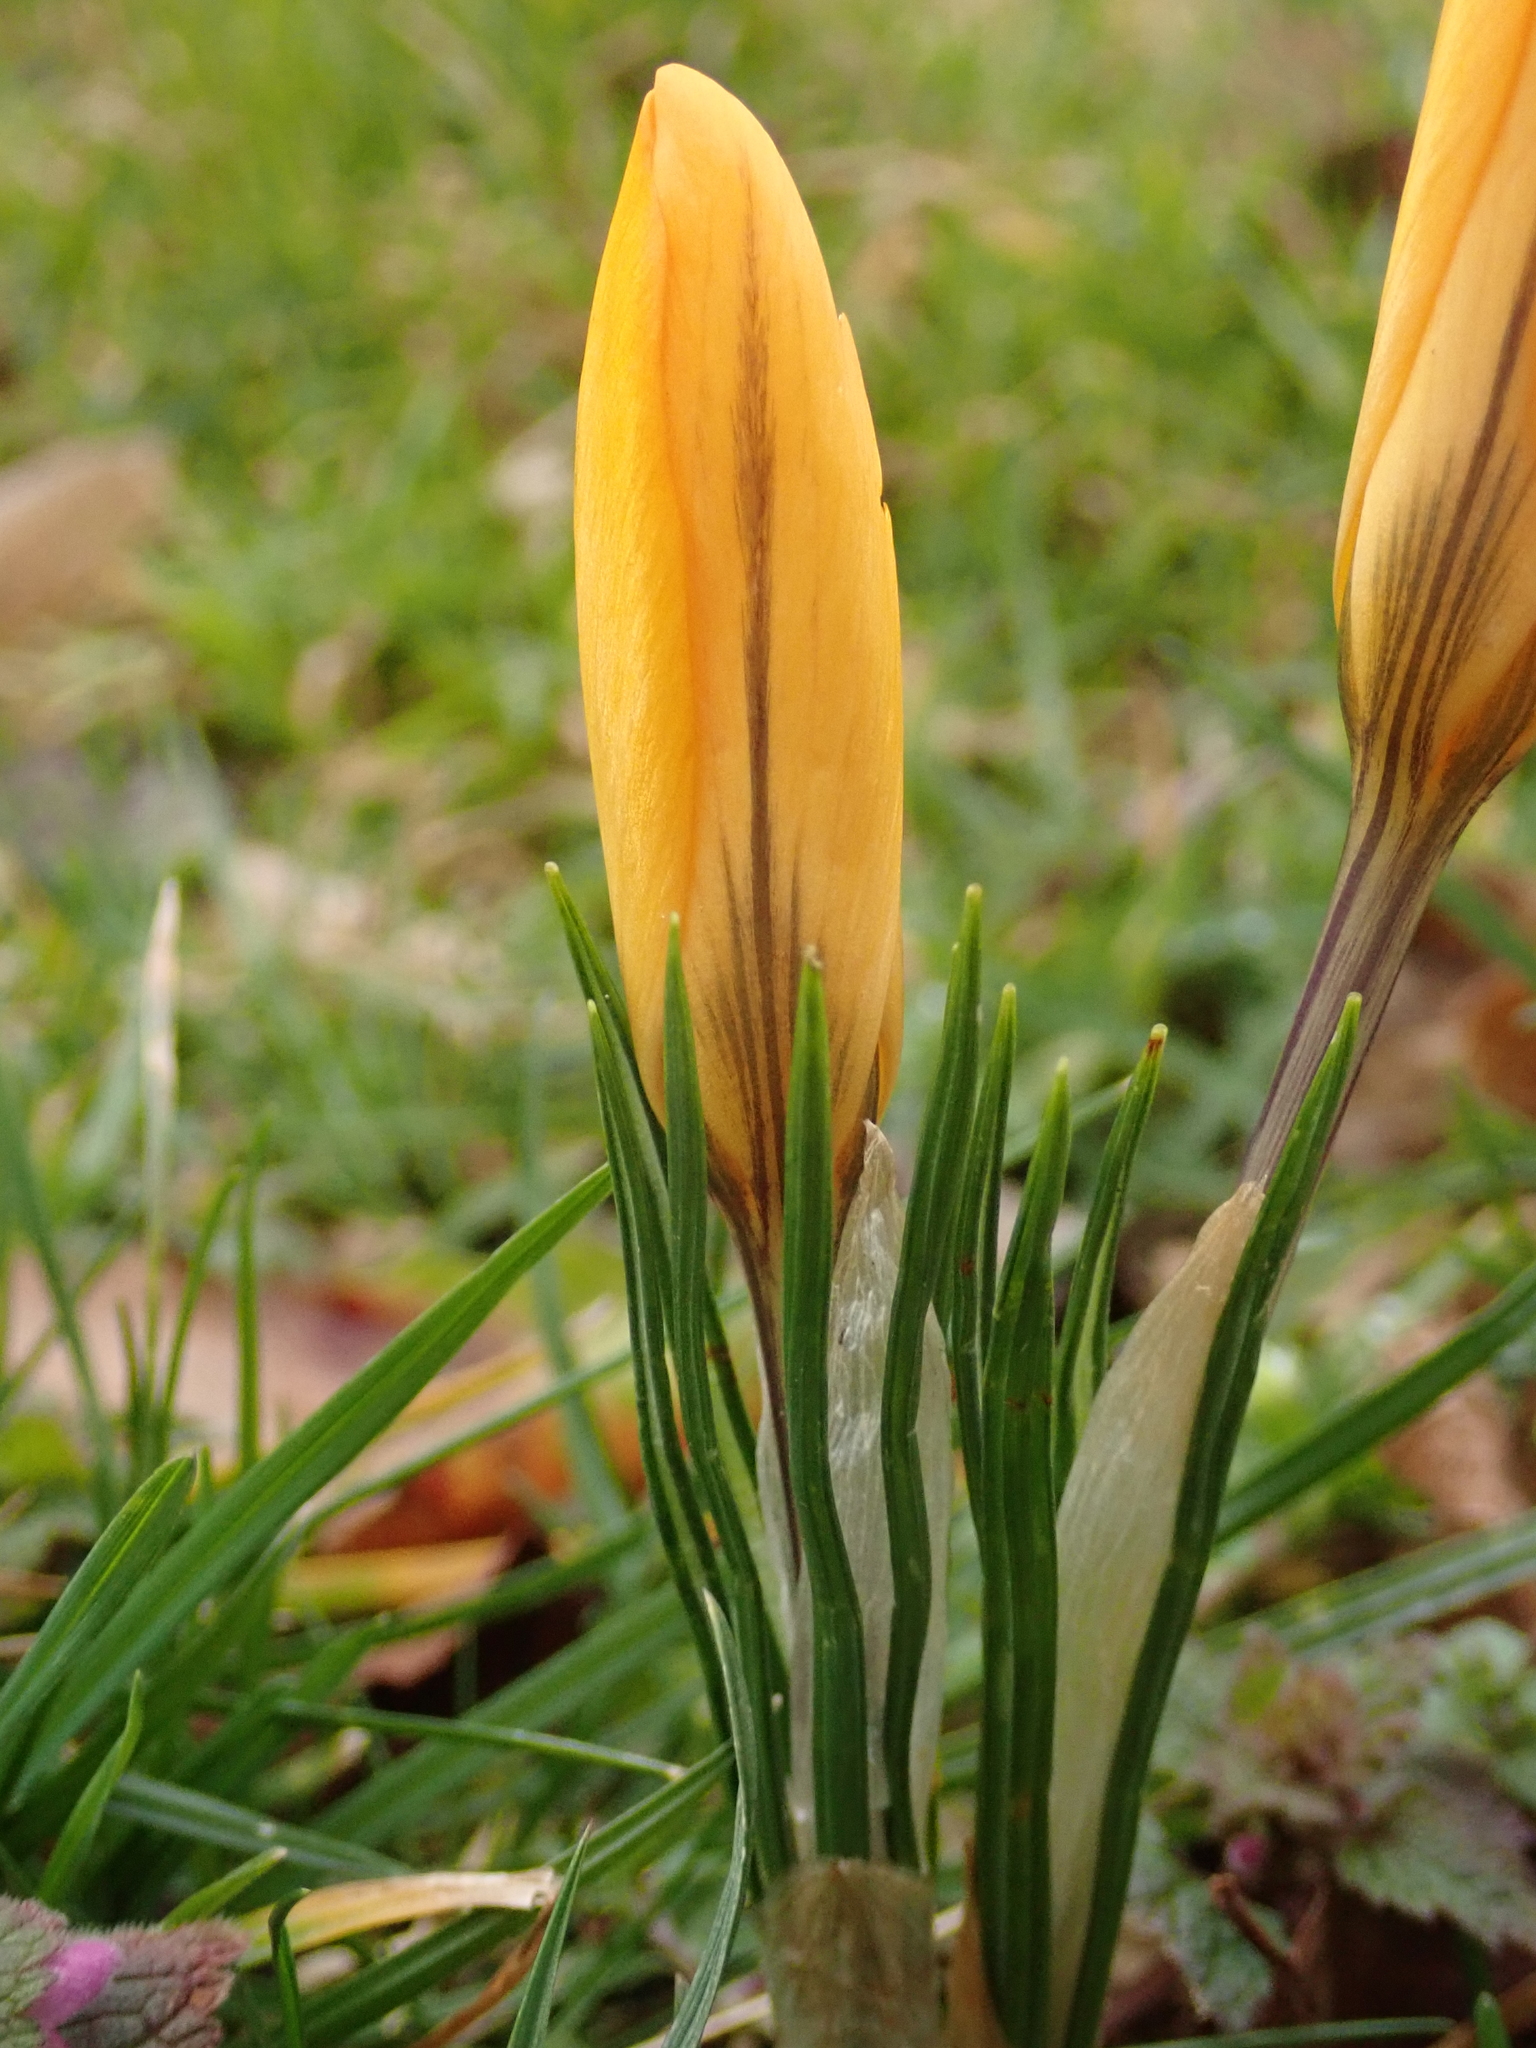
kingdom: Plantae
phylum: Tracheophyta
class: Liliopsida
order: Asparagales
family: Iridaceae
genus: Crocus
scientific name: Crocus luteus
